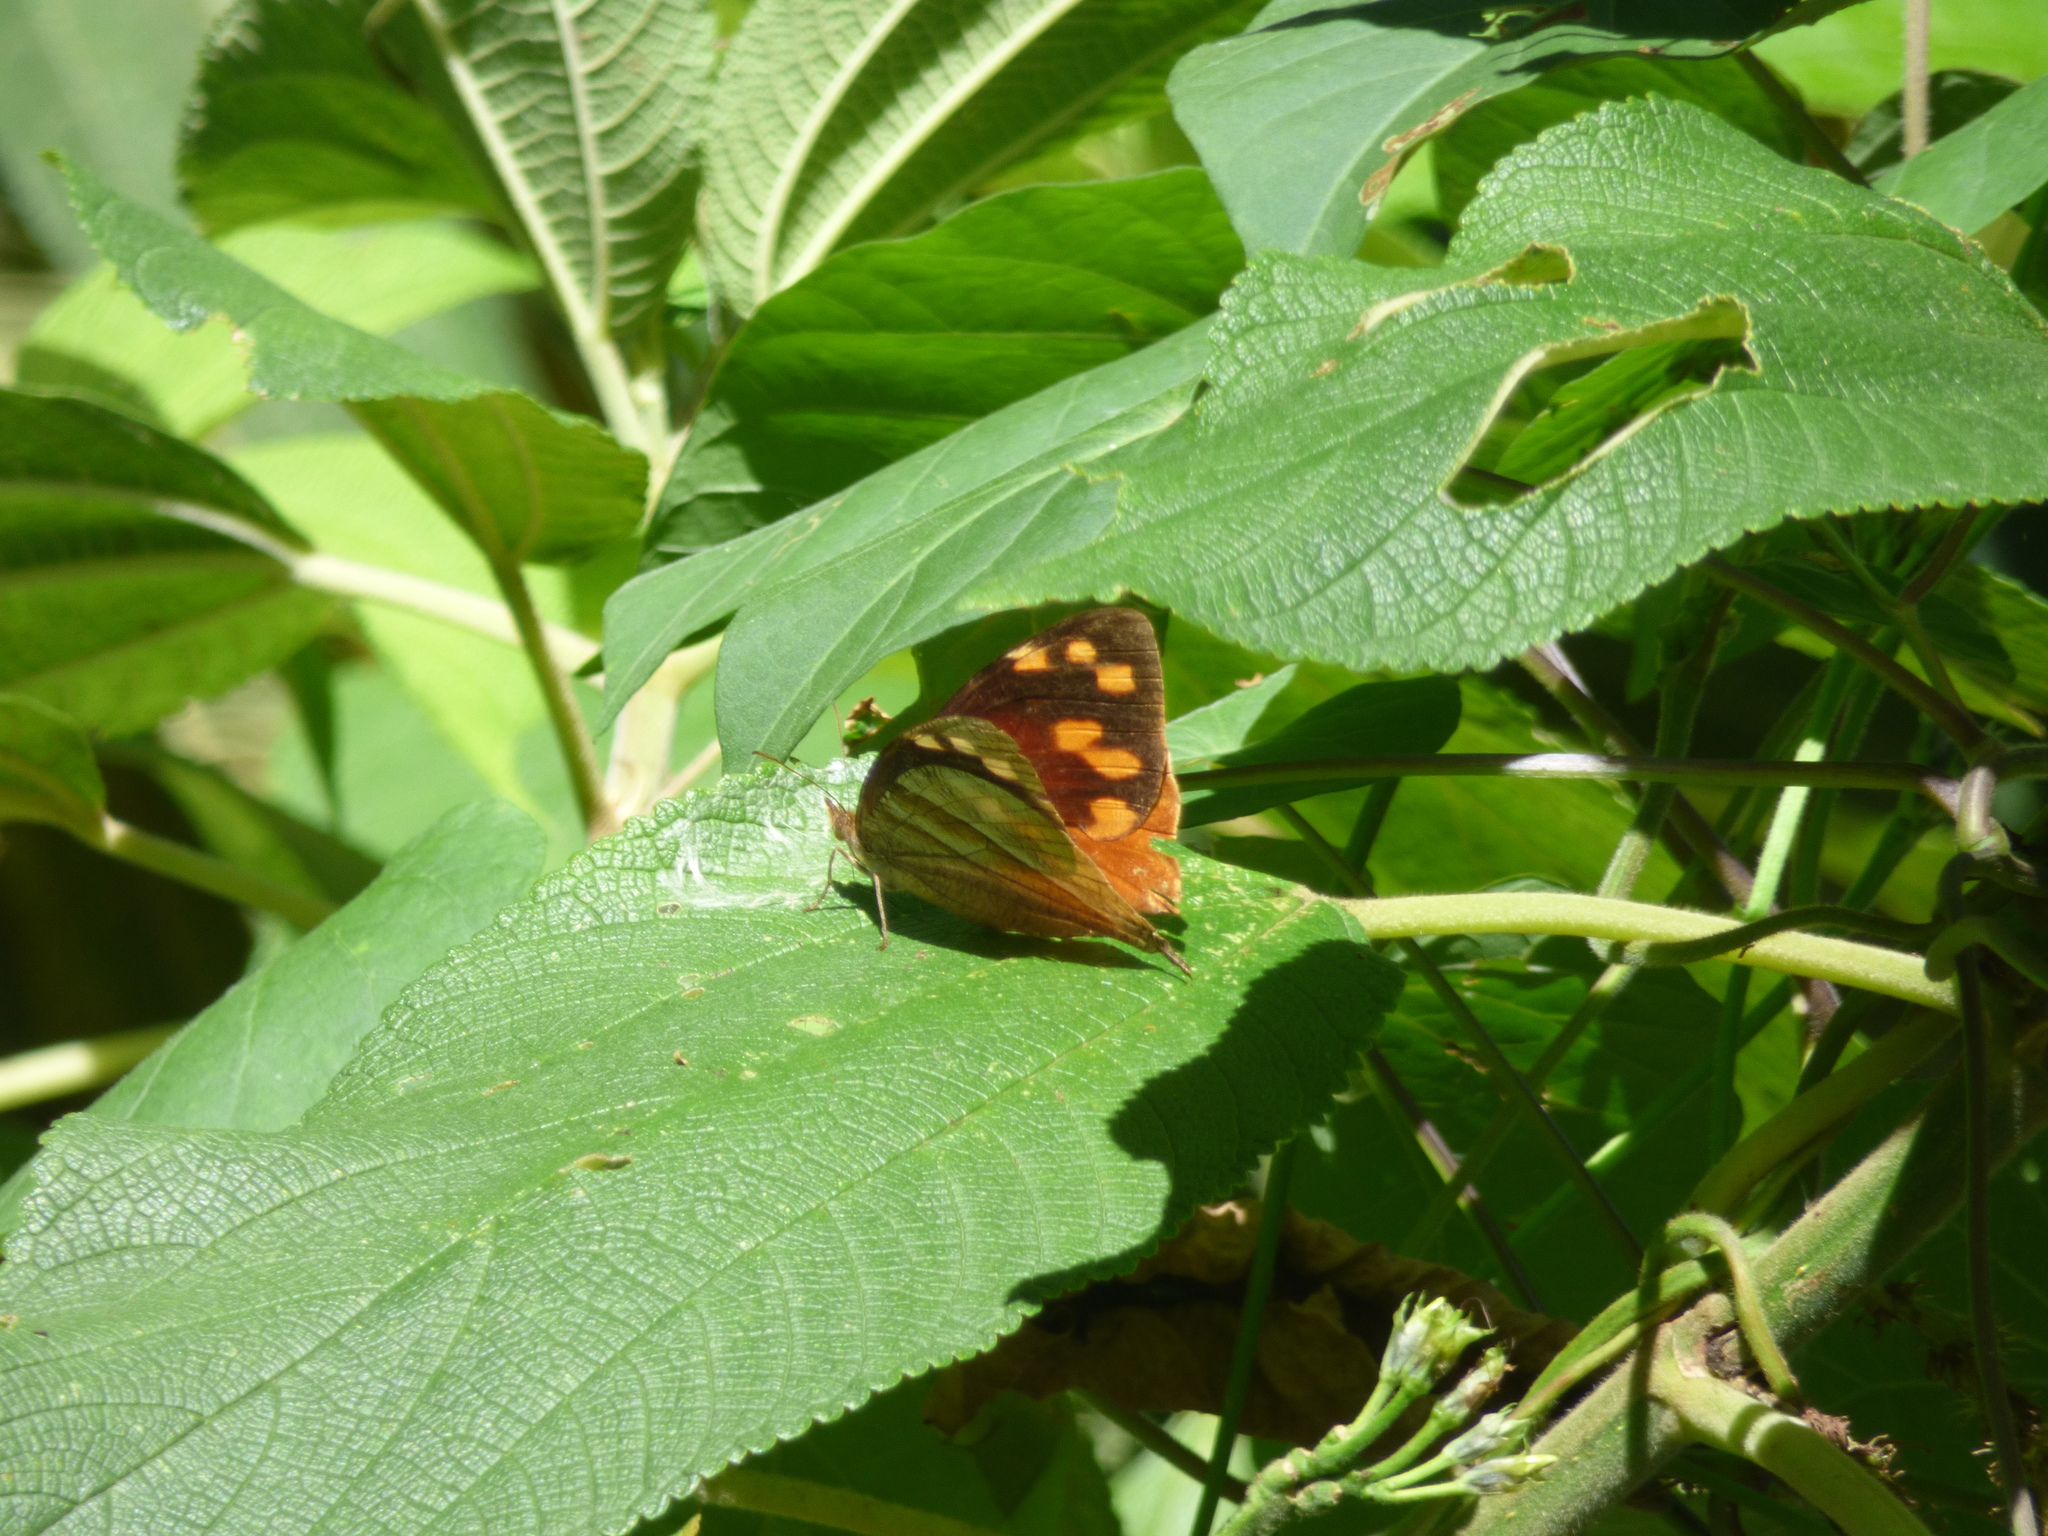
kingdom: Animalia
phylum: Arthropoda
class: Insecta
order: Lepidoptera
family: Nymphalidae
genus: Corades
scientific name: Corades enyo
